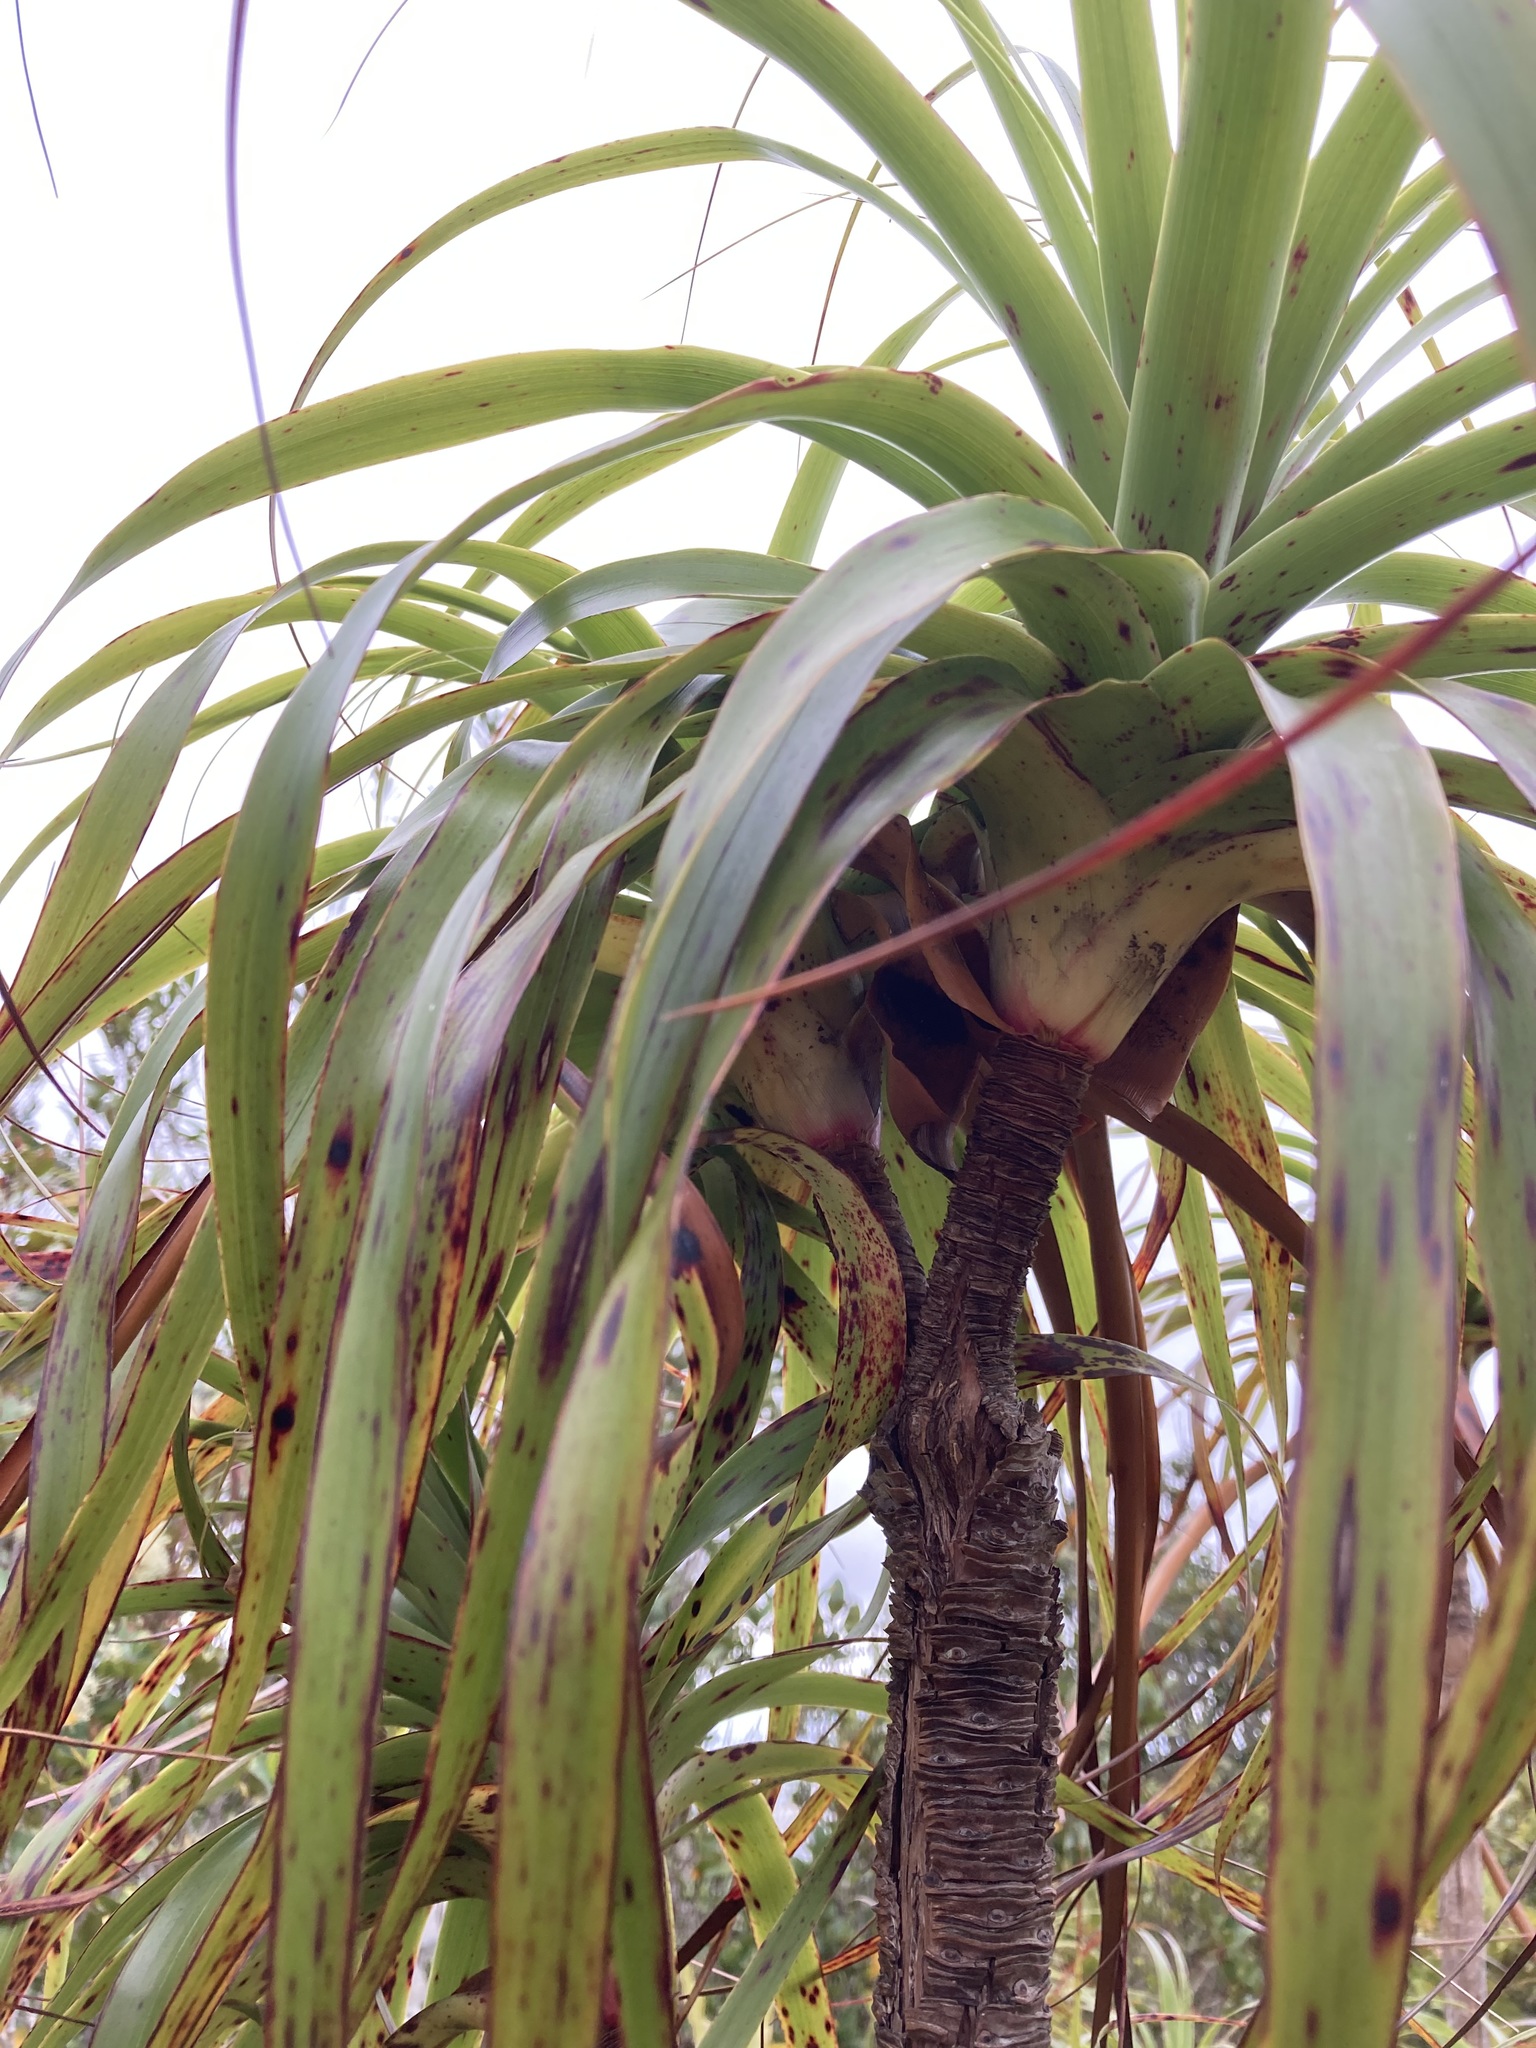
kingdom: Plantae
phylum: Tracheophyta
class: Magnoliopsida
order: Ericales
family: Ericaceae
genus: Dracophyllum
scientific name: Dracophyllum traversii
